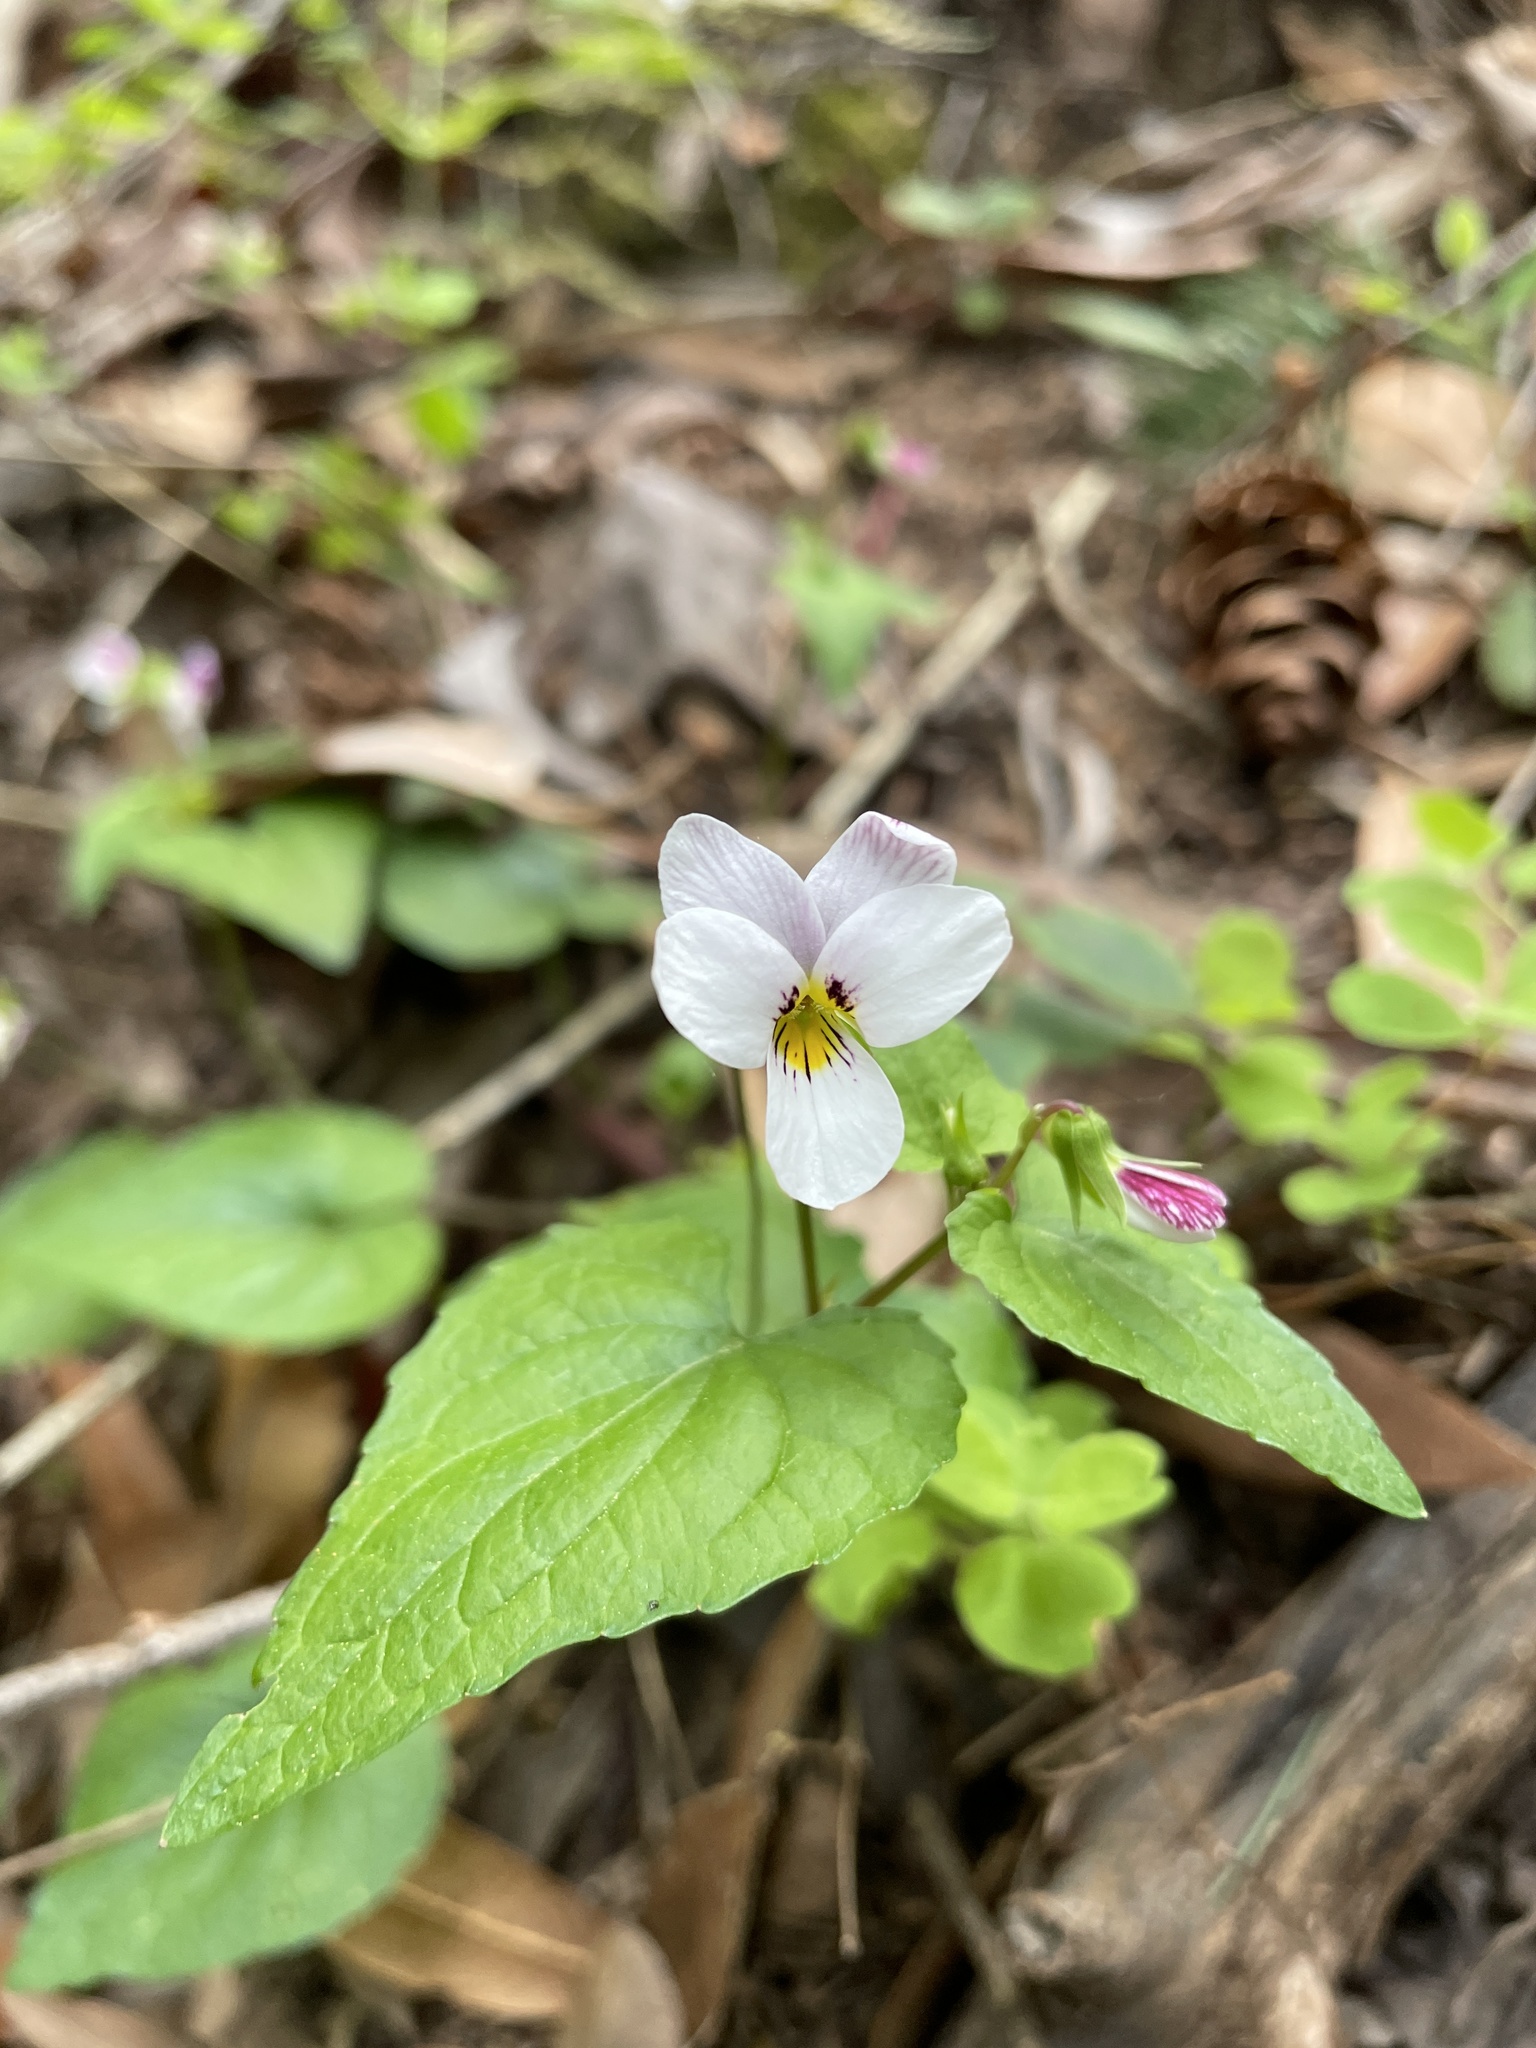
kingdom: Plantae
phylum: Tracheophyta
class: Magnoliopsida
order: Malpighiales
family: Violaceae
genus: Viola
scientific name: Viola ocellata
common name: Western heart's ease
